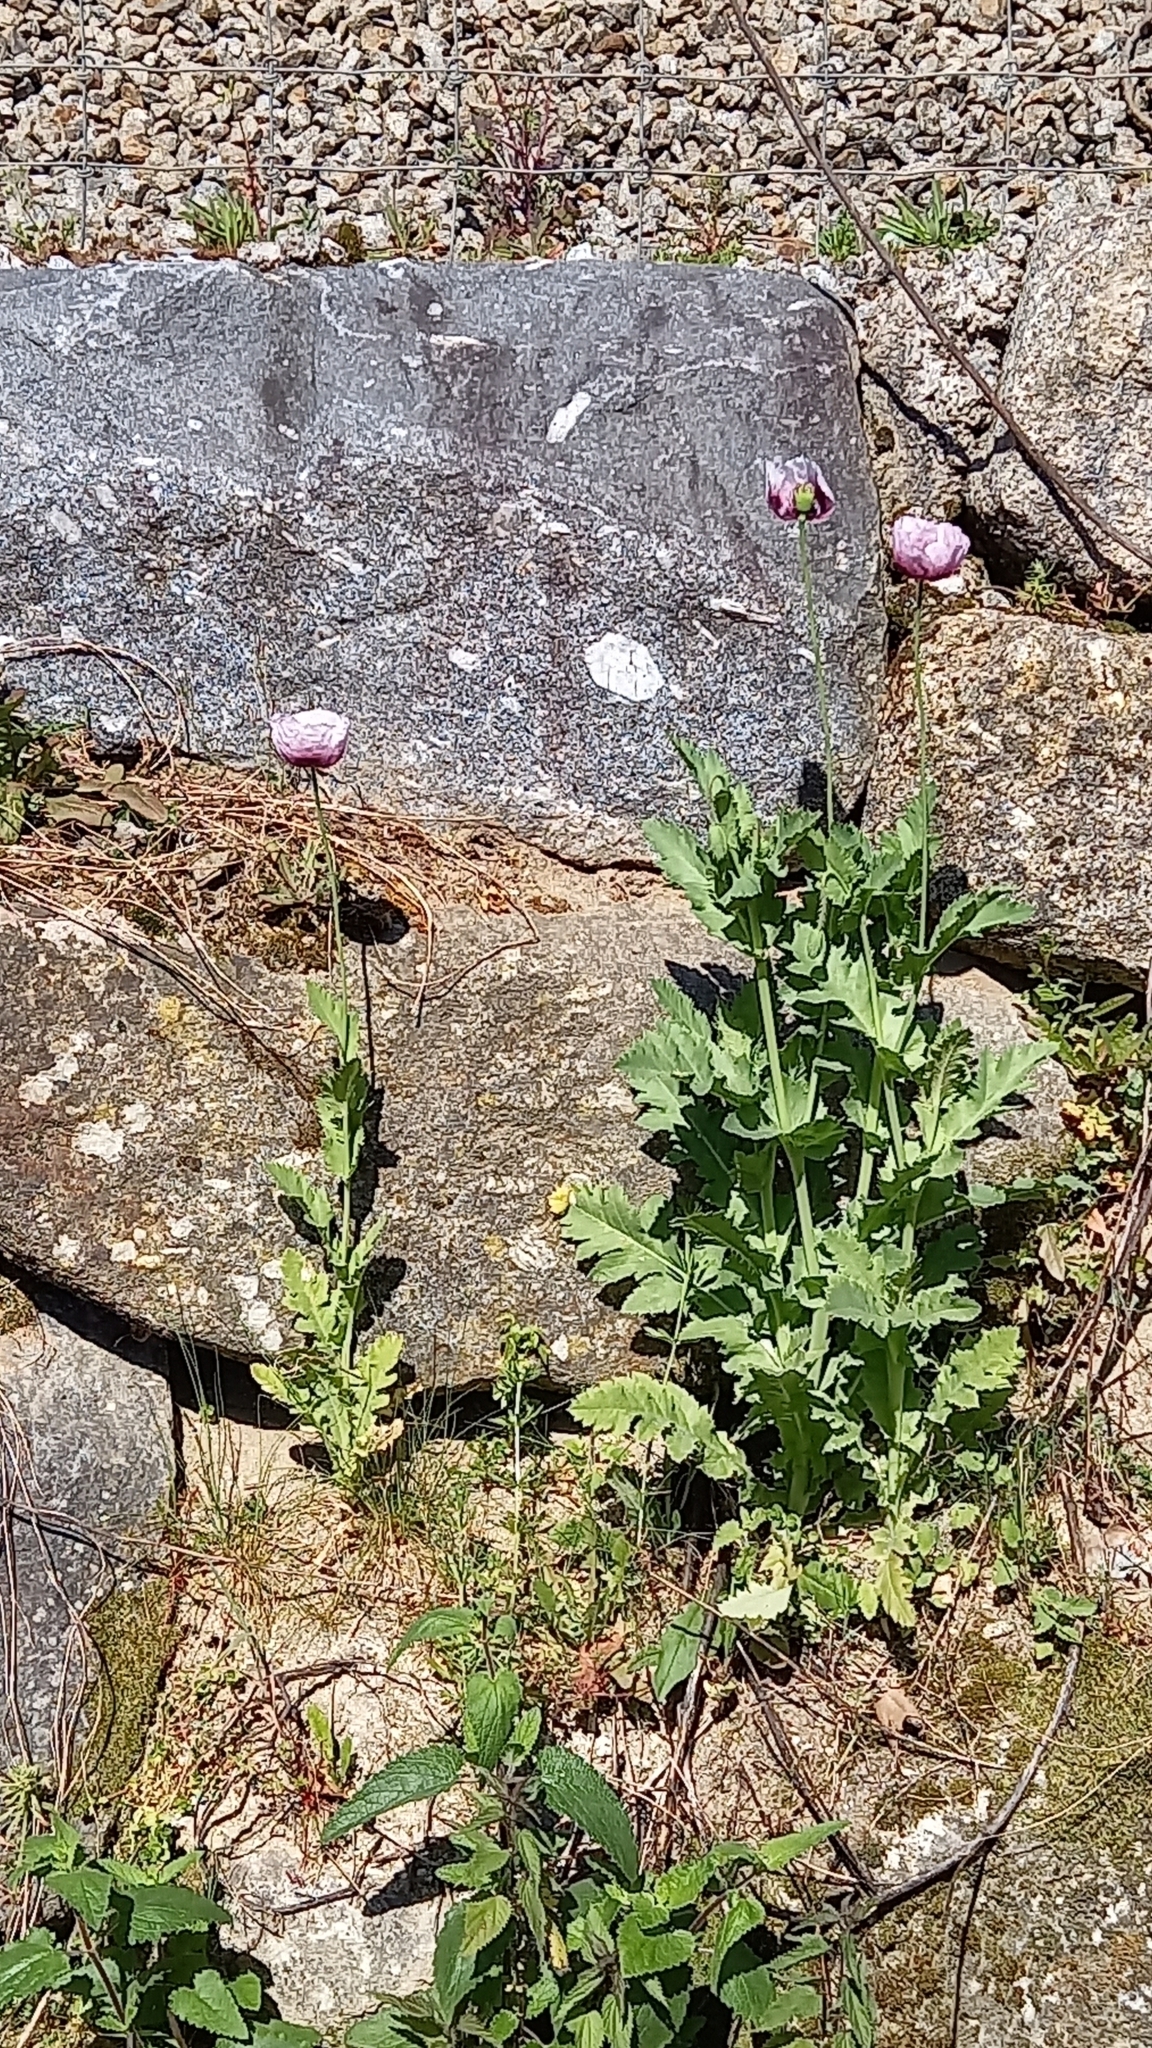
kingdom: Plantae
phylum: Tracheophyta
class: Magnoliopsida
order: Ranunculales
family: Papaveraceae
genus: Papaver
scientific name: Papaver somniferum
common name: Opium poppy
